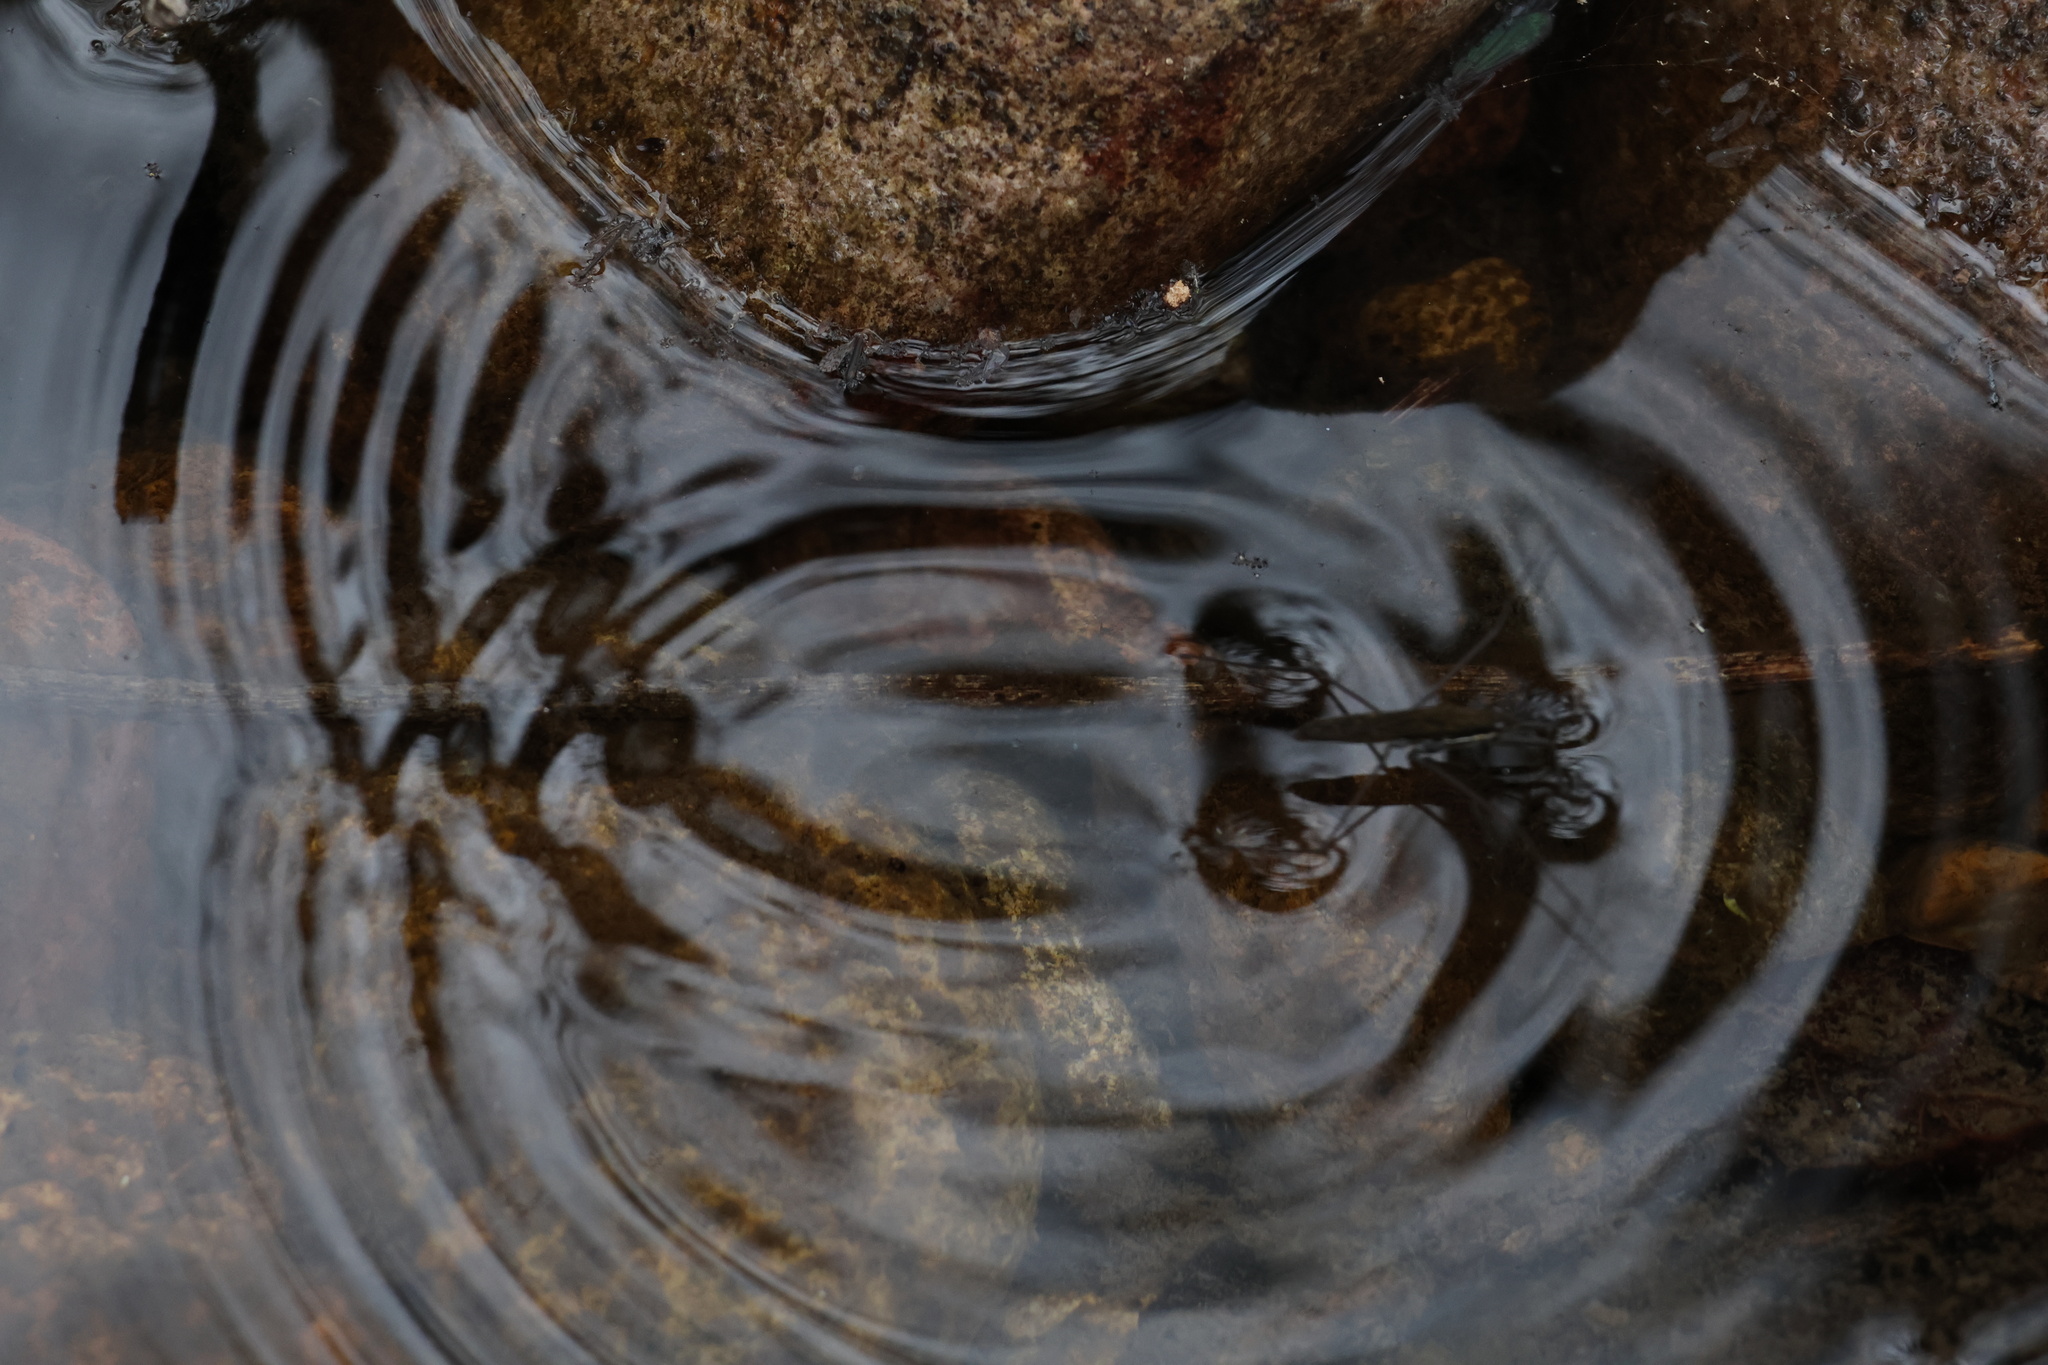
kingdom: Animalia
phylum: Arthropoda
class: Insecta
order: Hemiptera
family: Gerridae
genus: Aquarius
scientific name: Aquarius remigis
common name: Common water strider
